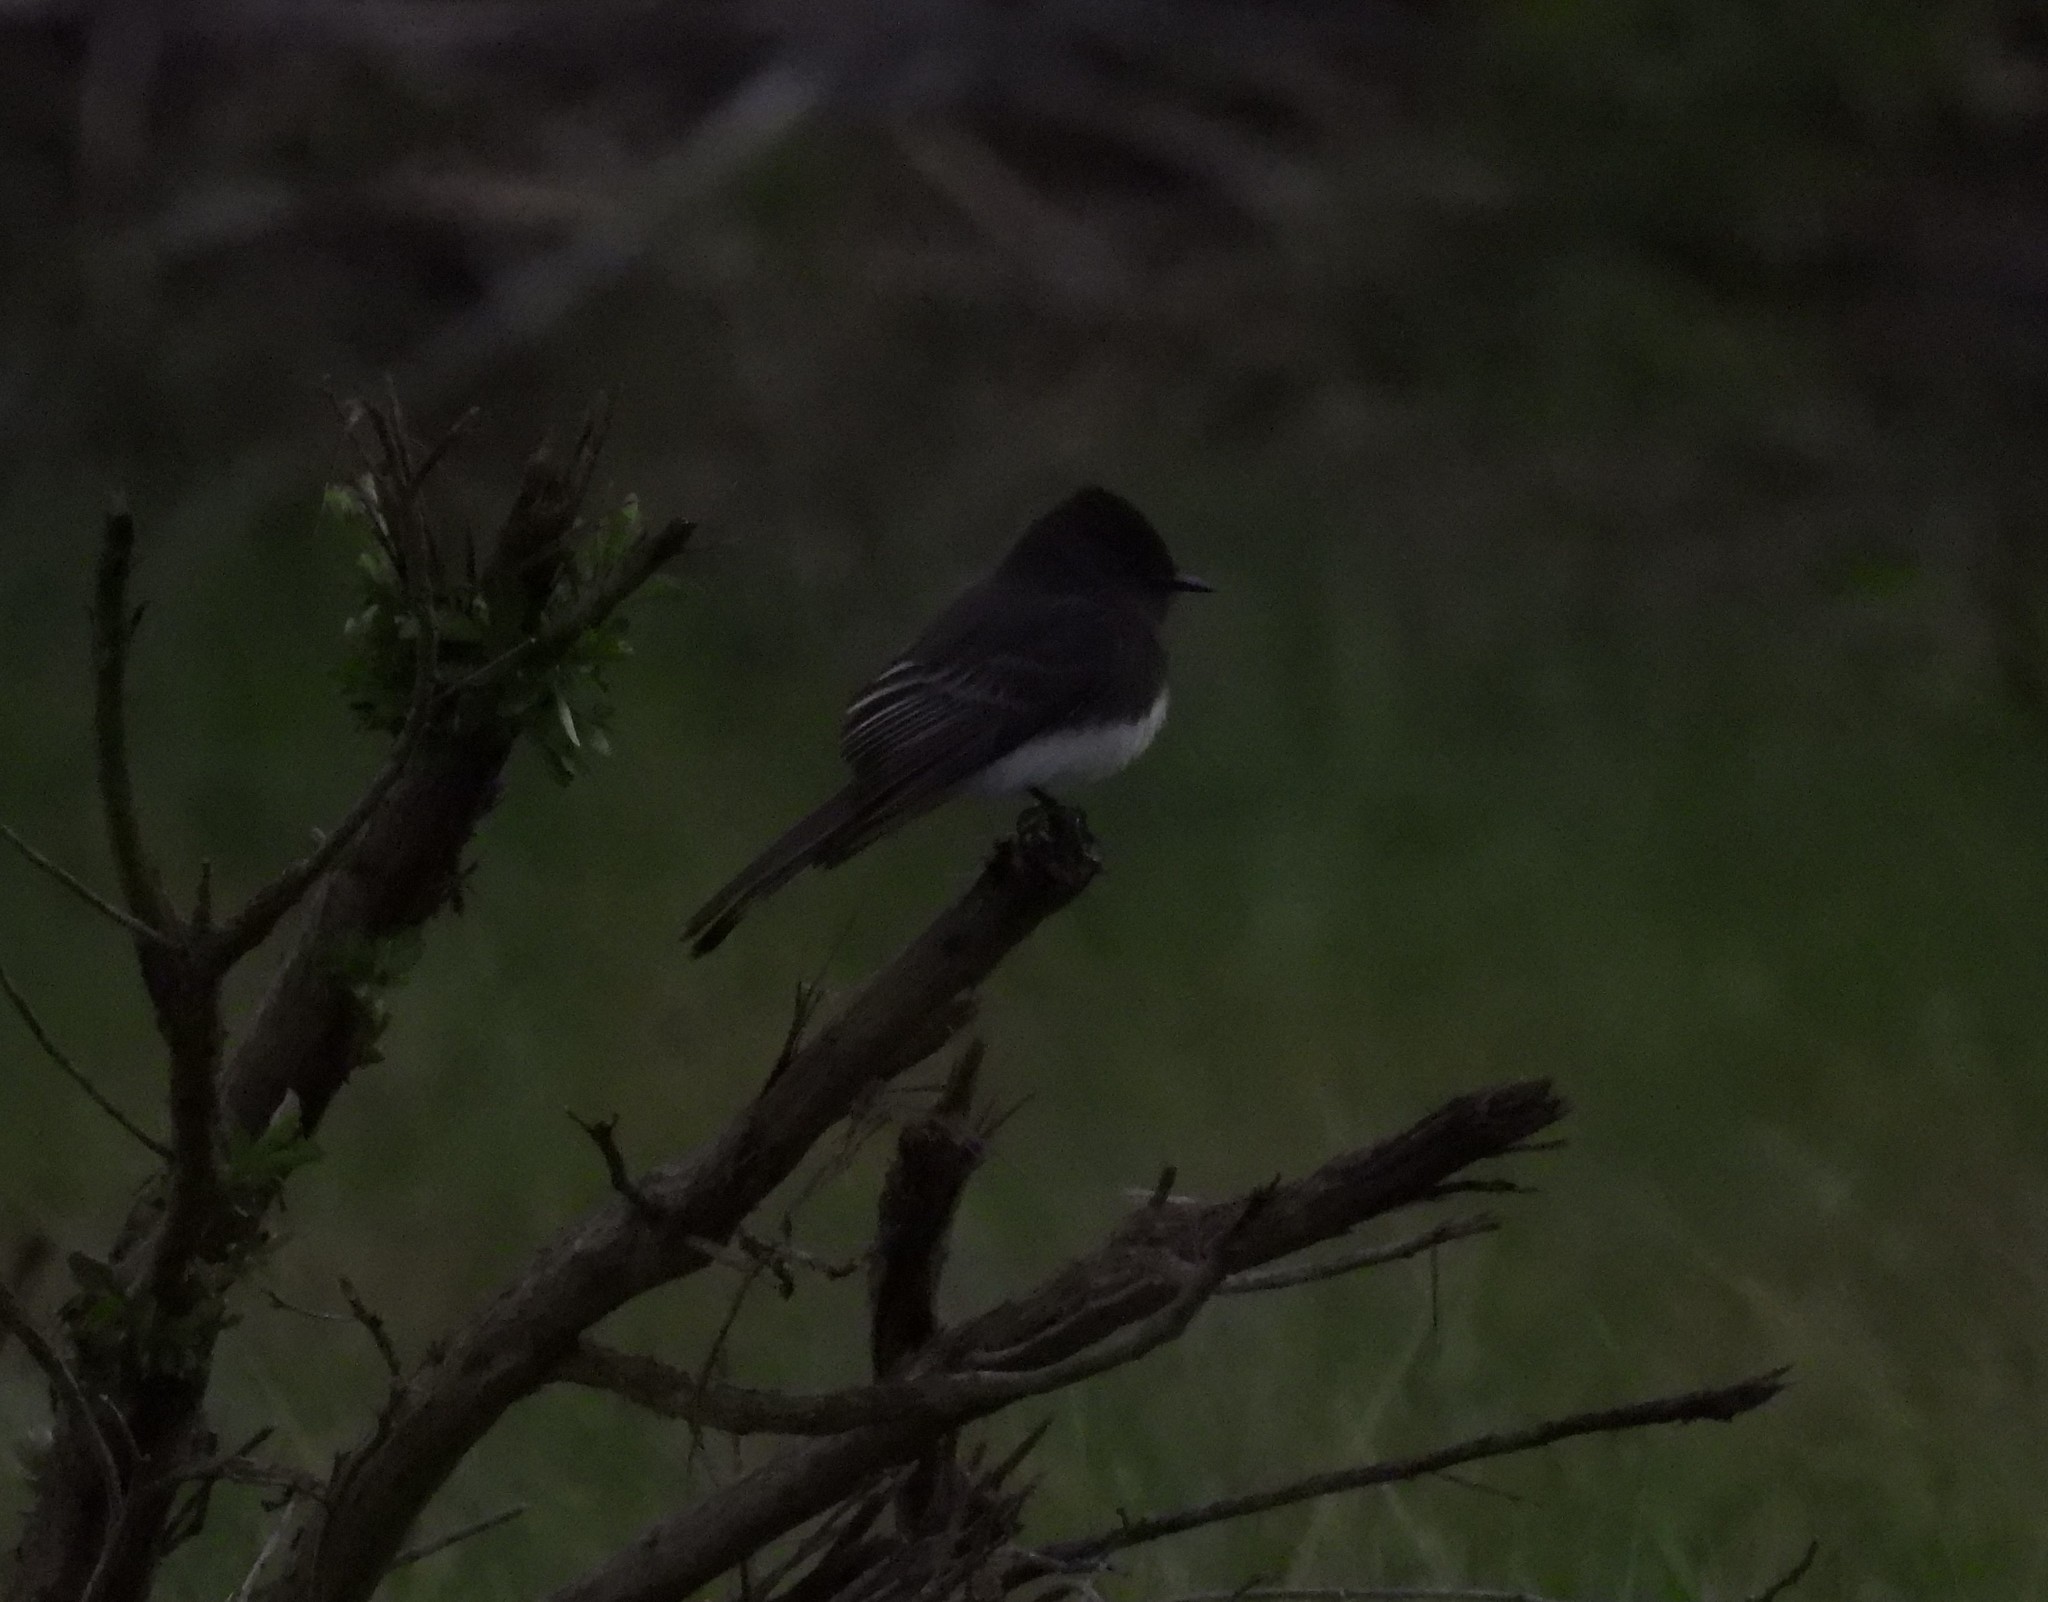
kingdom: Animalia
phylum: Chordata
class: Aves
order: Passeriformes
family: Tyrannidae
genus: Sayornis
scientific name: Sayornis nigricans
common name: Black phoebe
